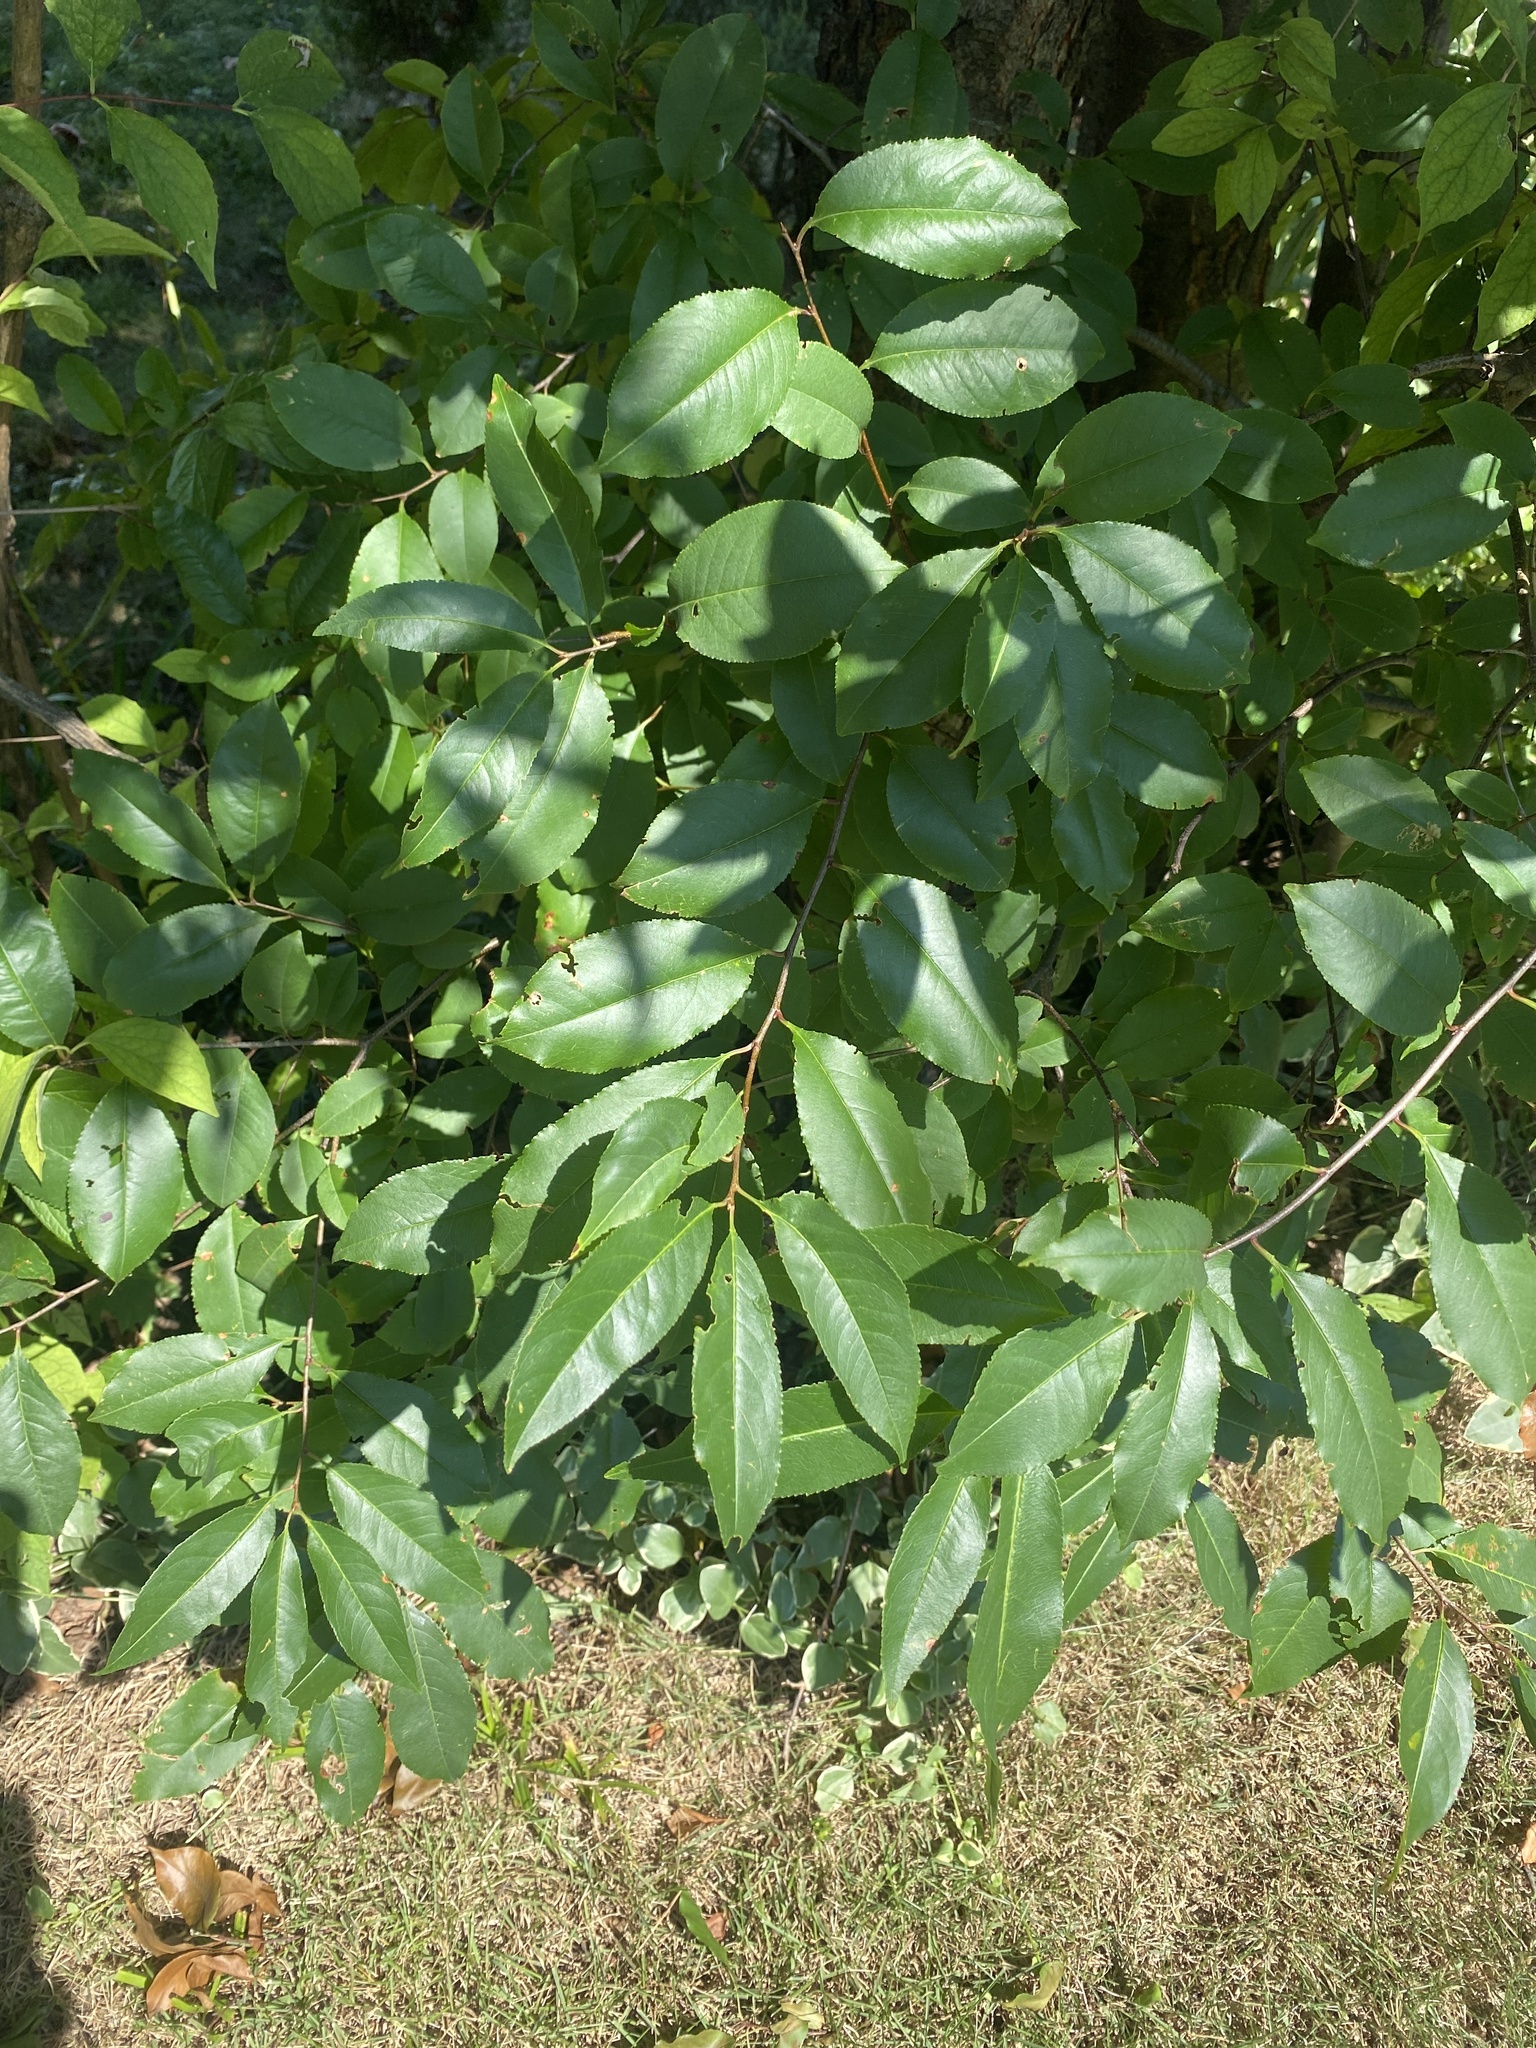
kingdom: Plantae
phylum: Tracheophyta
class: Magnoliopsida
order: Rosales
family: Rosaceae
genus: Prunus
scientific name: Prunus serotina
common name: Black cherry
